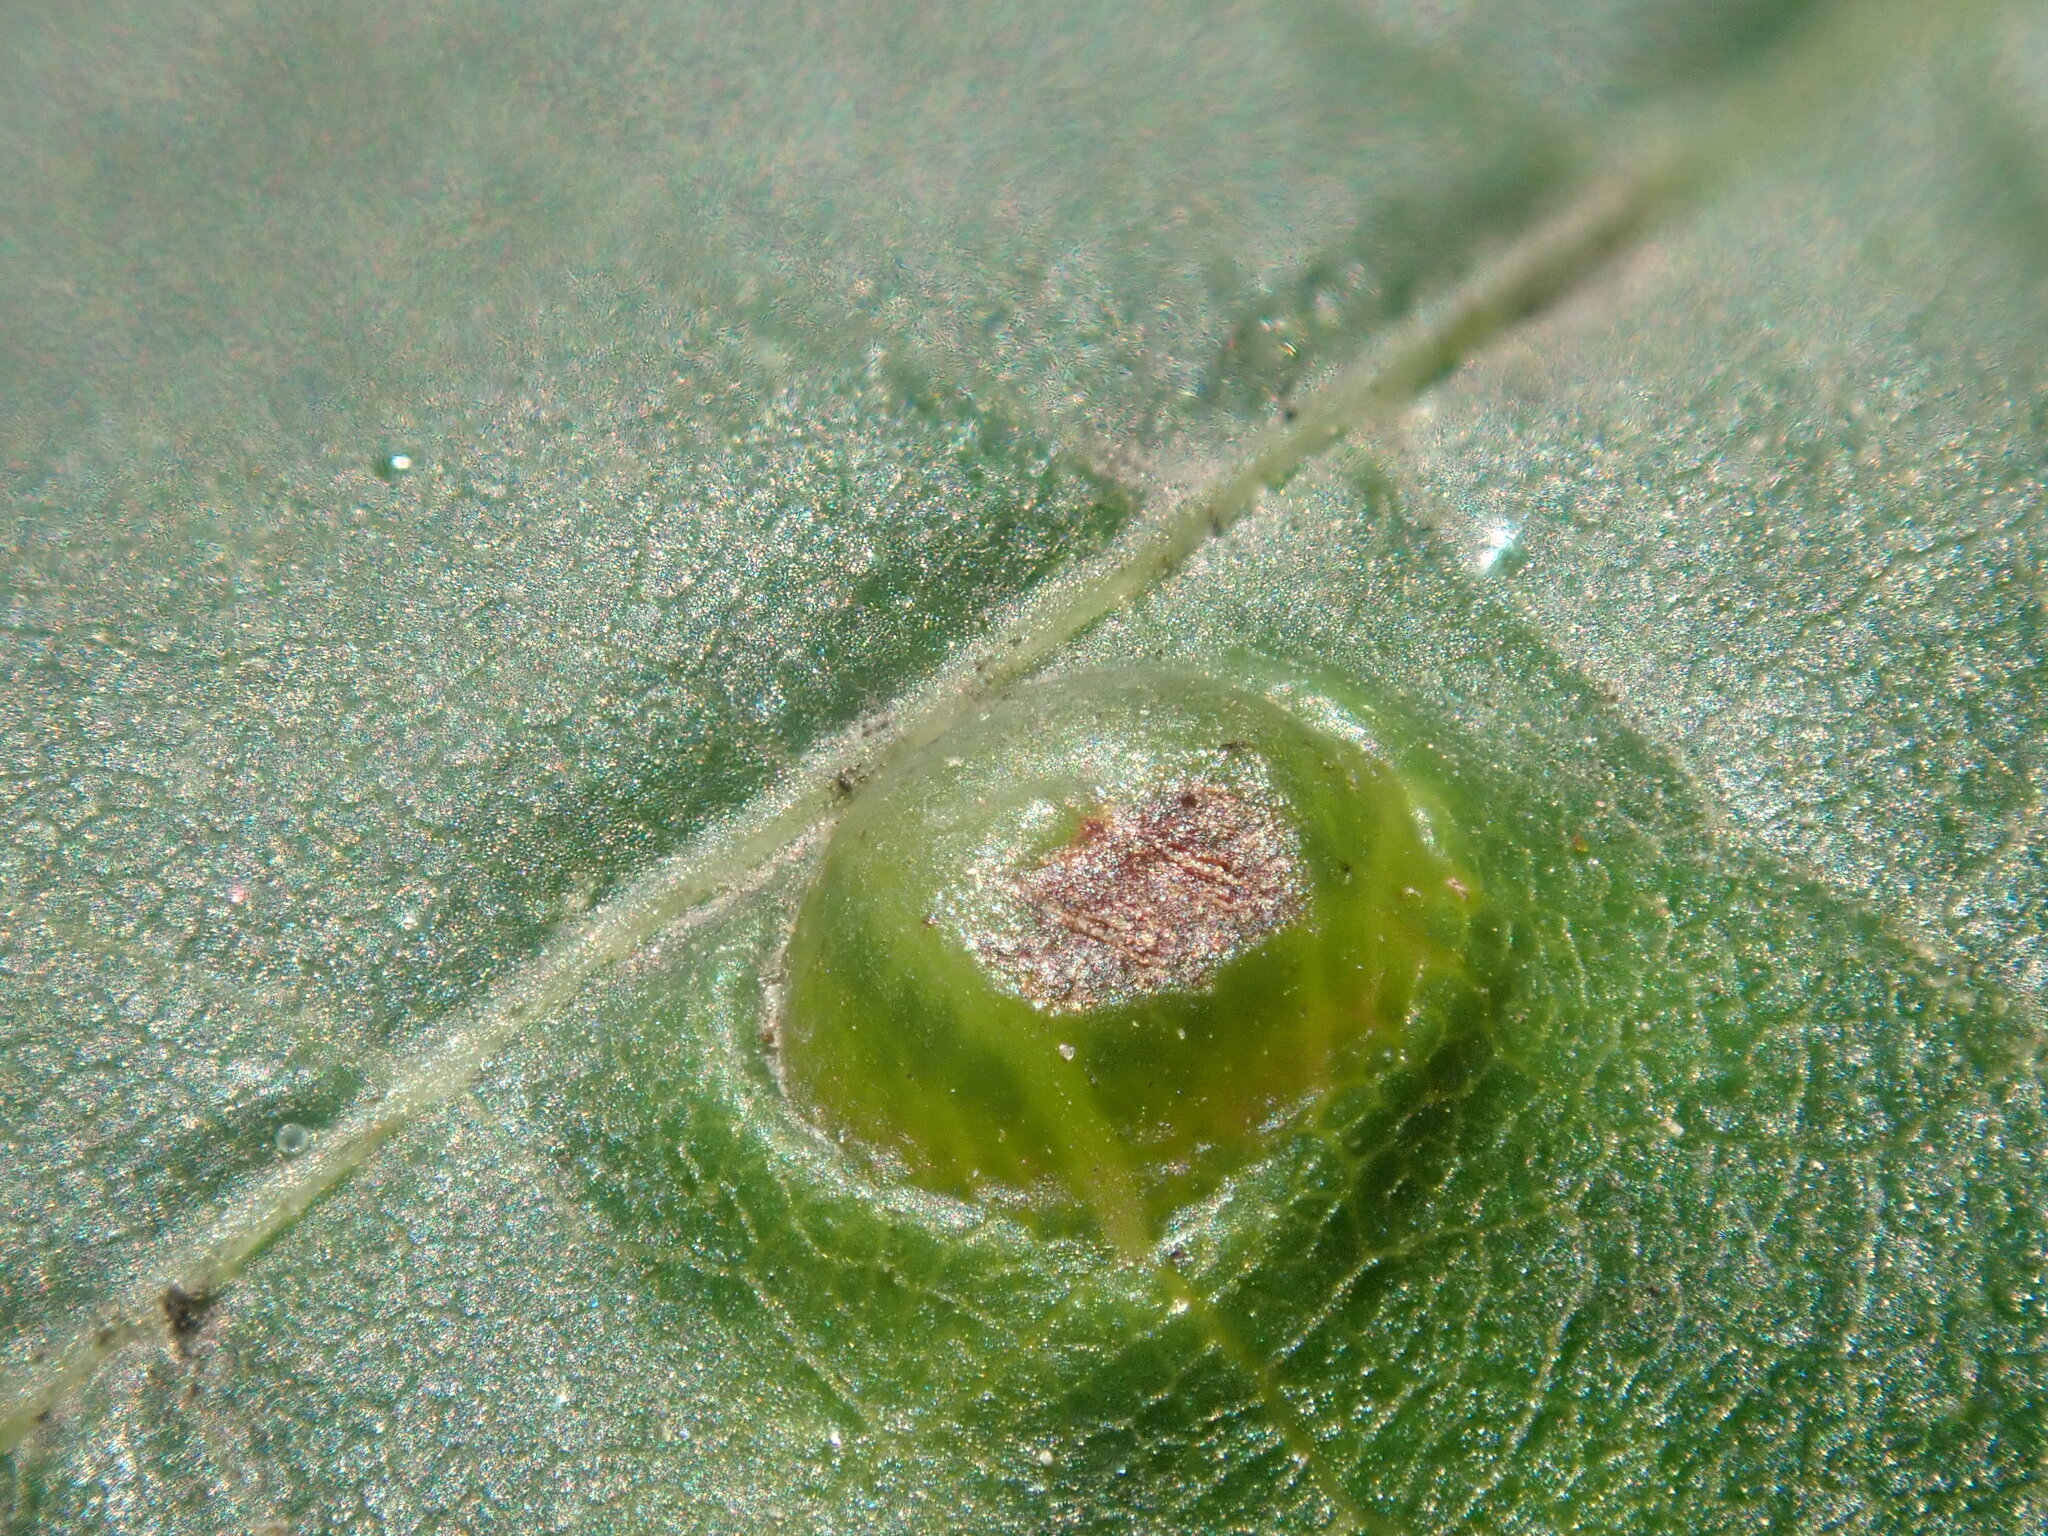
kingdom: Animalia
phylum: Arthropoda
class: Insecta
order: Diptera
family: Cecidomyiidae
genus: Contarinia
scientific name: Contarinia verrucicola
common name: Linden wart gall midge
